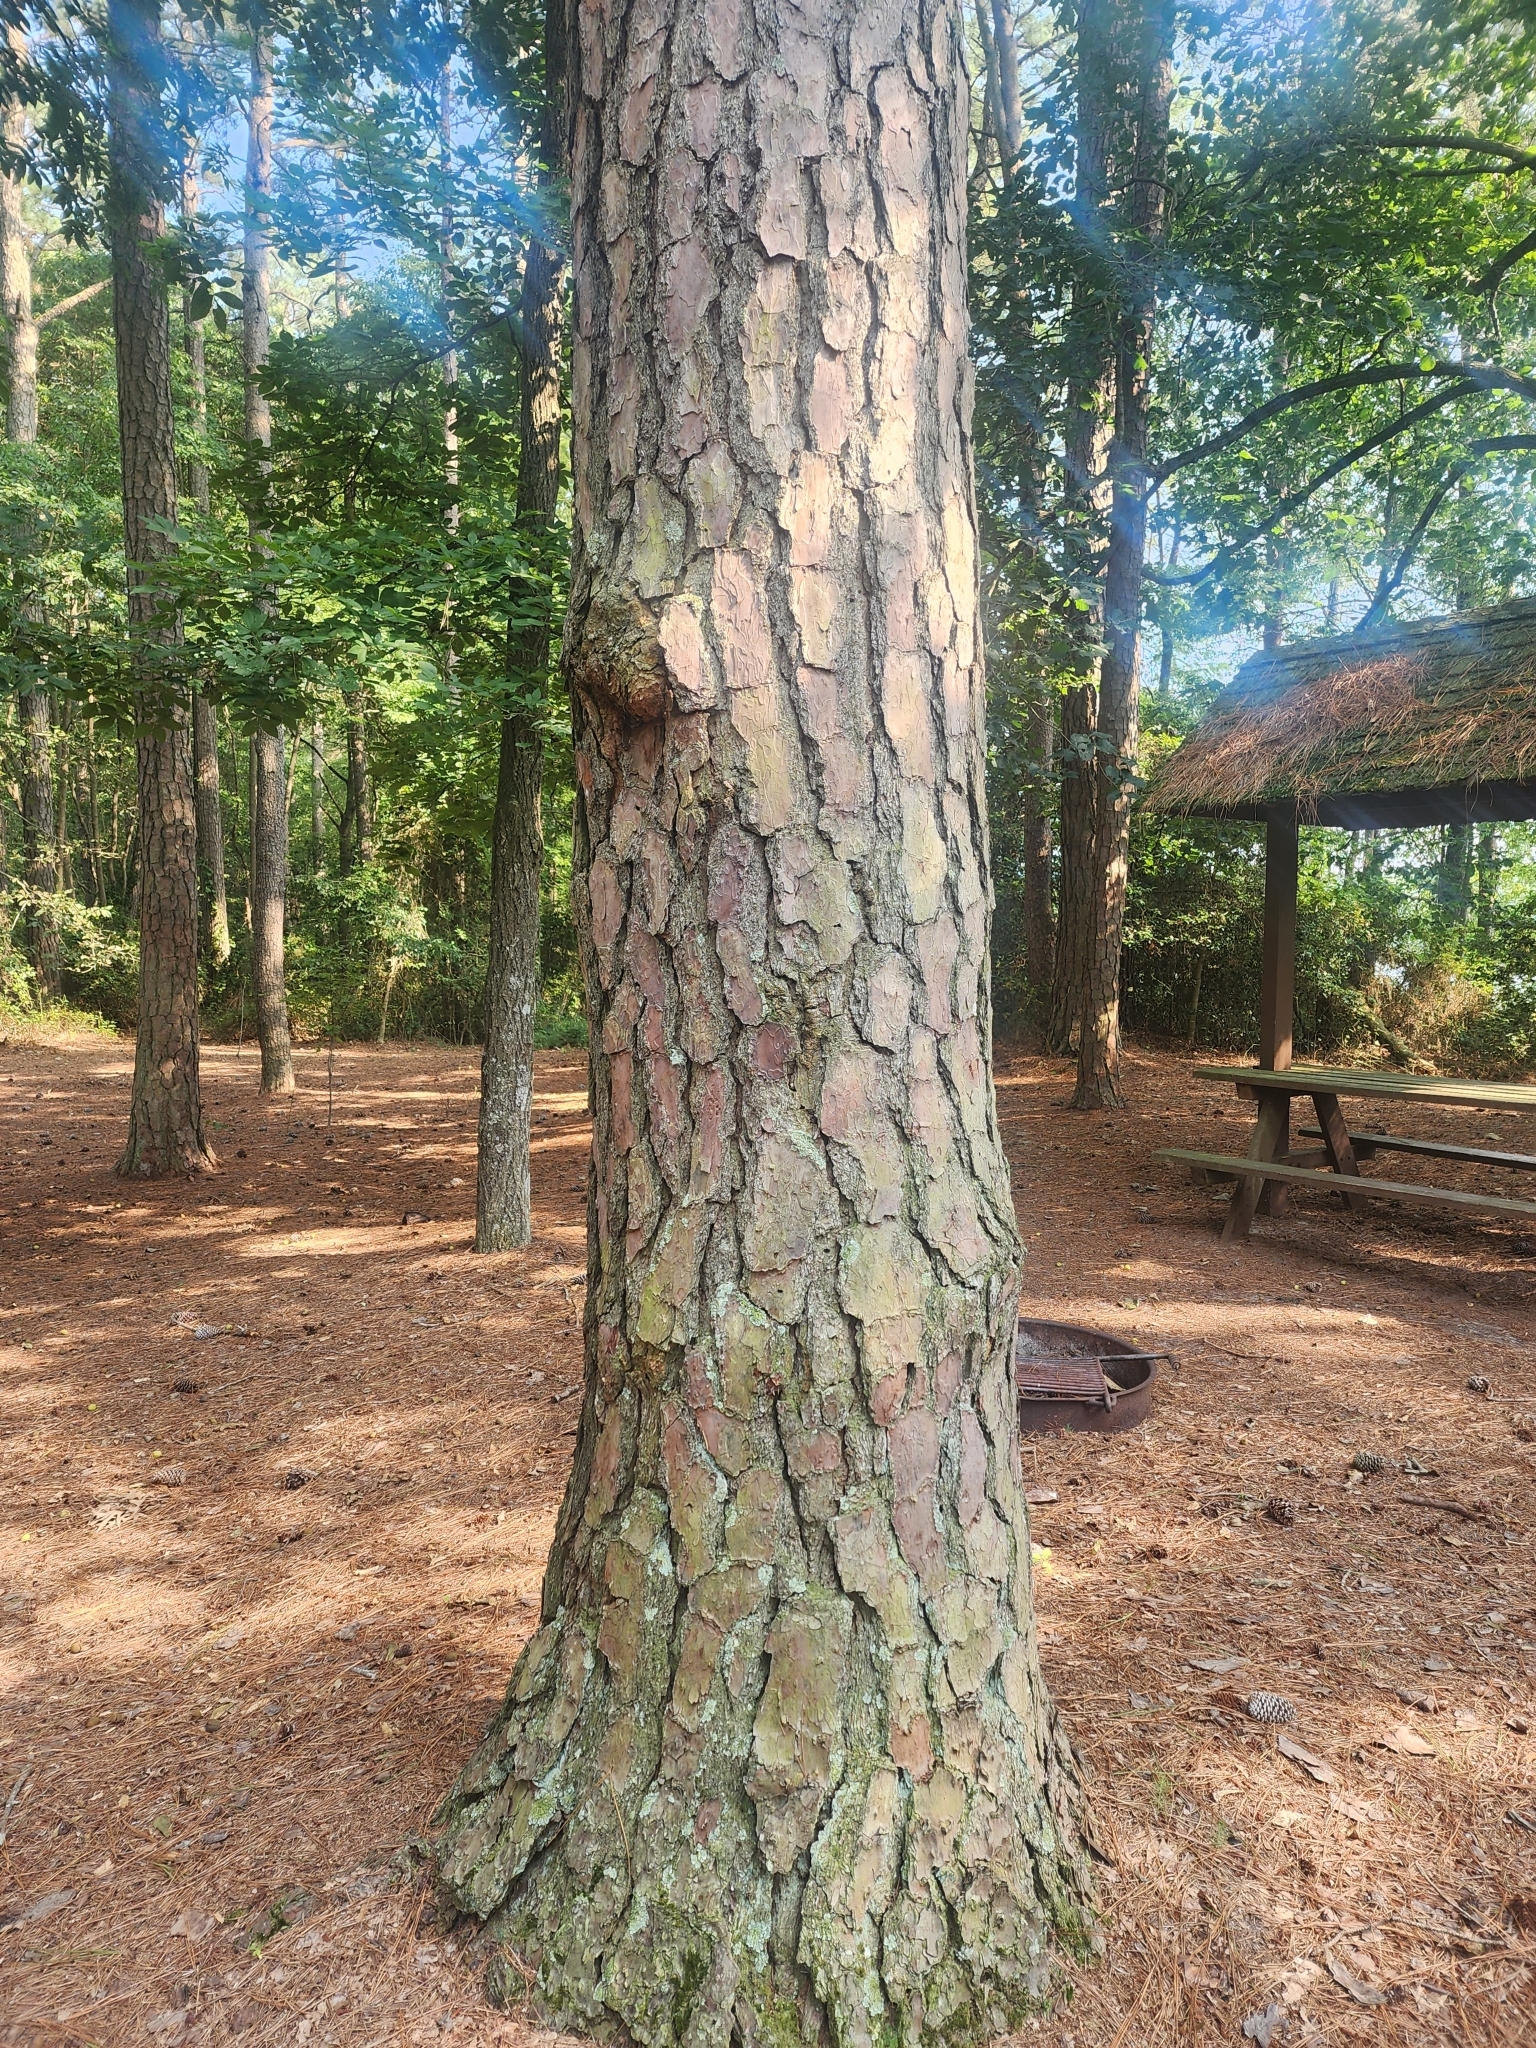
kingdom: Plantae
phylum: Tracheophyta
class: Pinopsida
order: Pinales
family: Pinaceae
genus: Pinus
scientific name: Pinus taeda
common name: Loblolly pine
